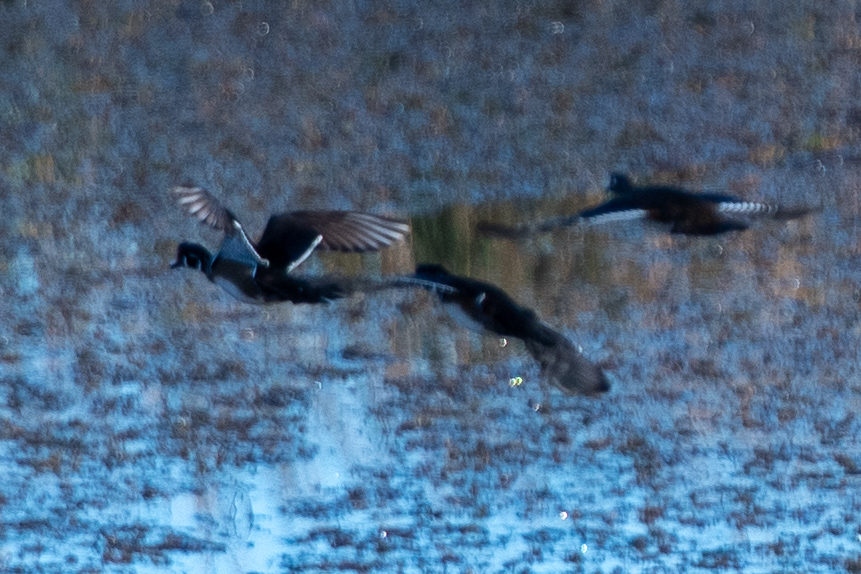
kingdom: Animalia
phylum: Chordata
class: Aves
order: Anseriformes
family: Anatidae
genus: Aix
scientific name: Aix sponsa
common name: Wood duck
